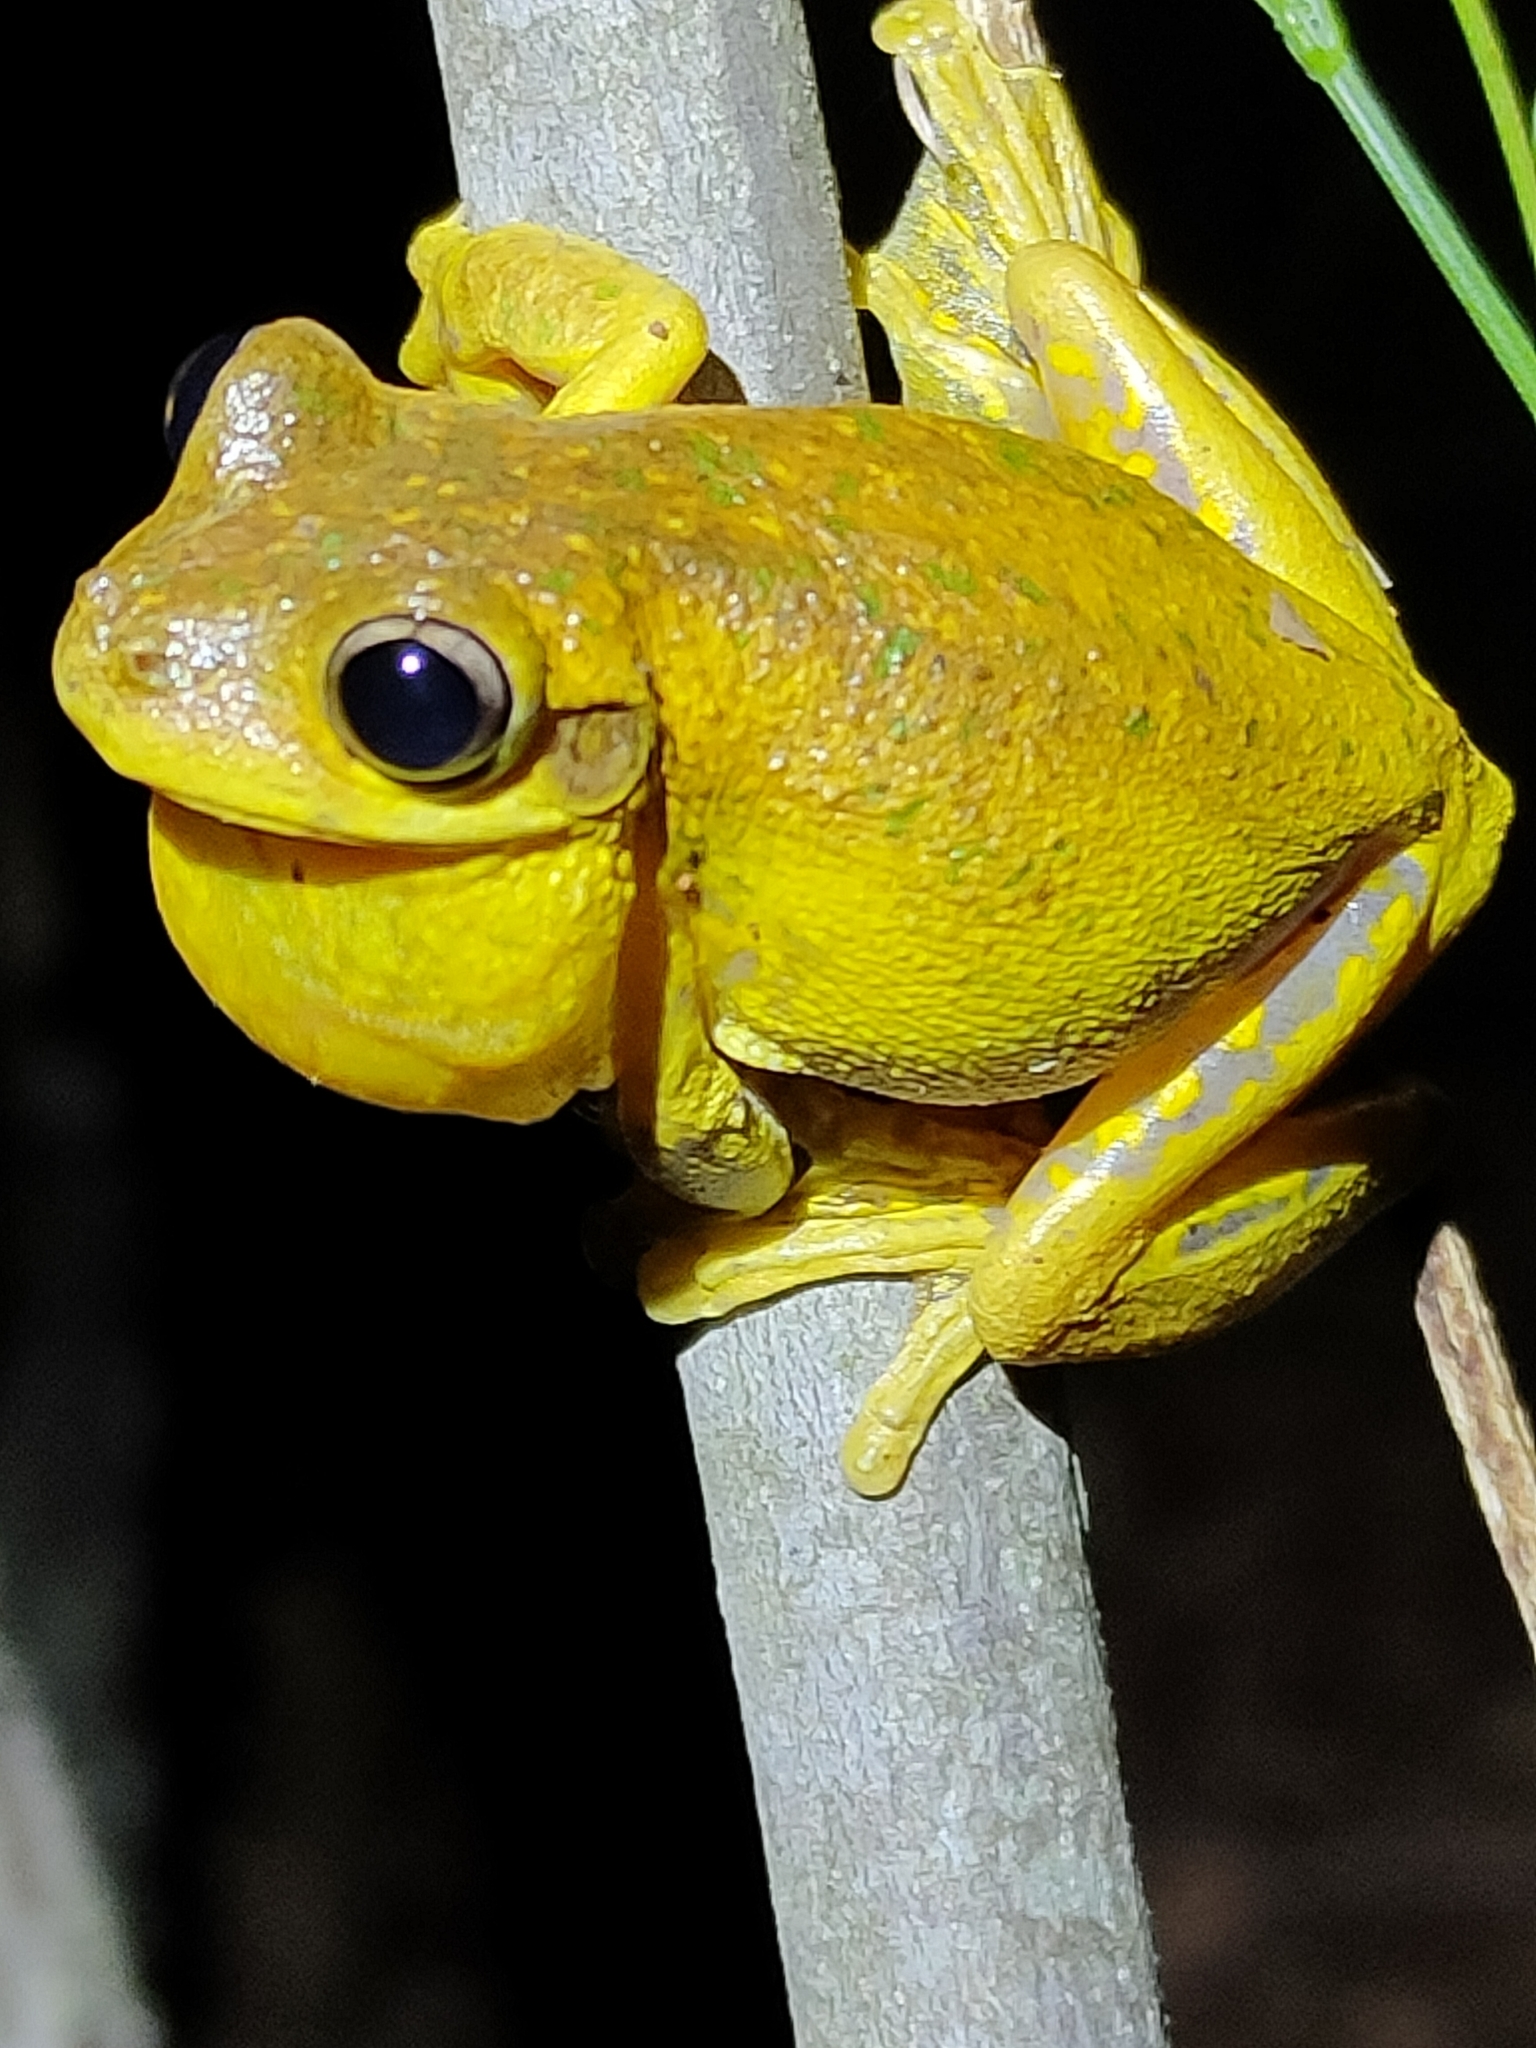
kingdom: Animalia
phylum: Chordata
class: Amphibia
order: Anura
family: Pelodryadidae
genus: Litoria
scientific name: Litoria tyleri
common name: Laughing tree frog
